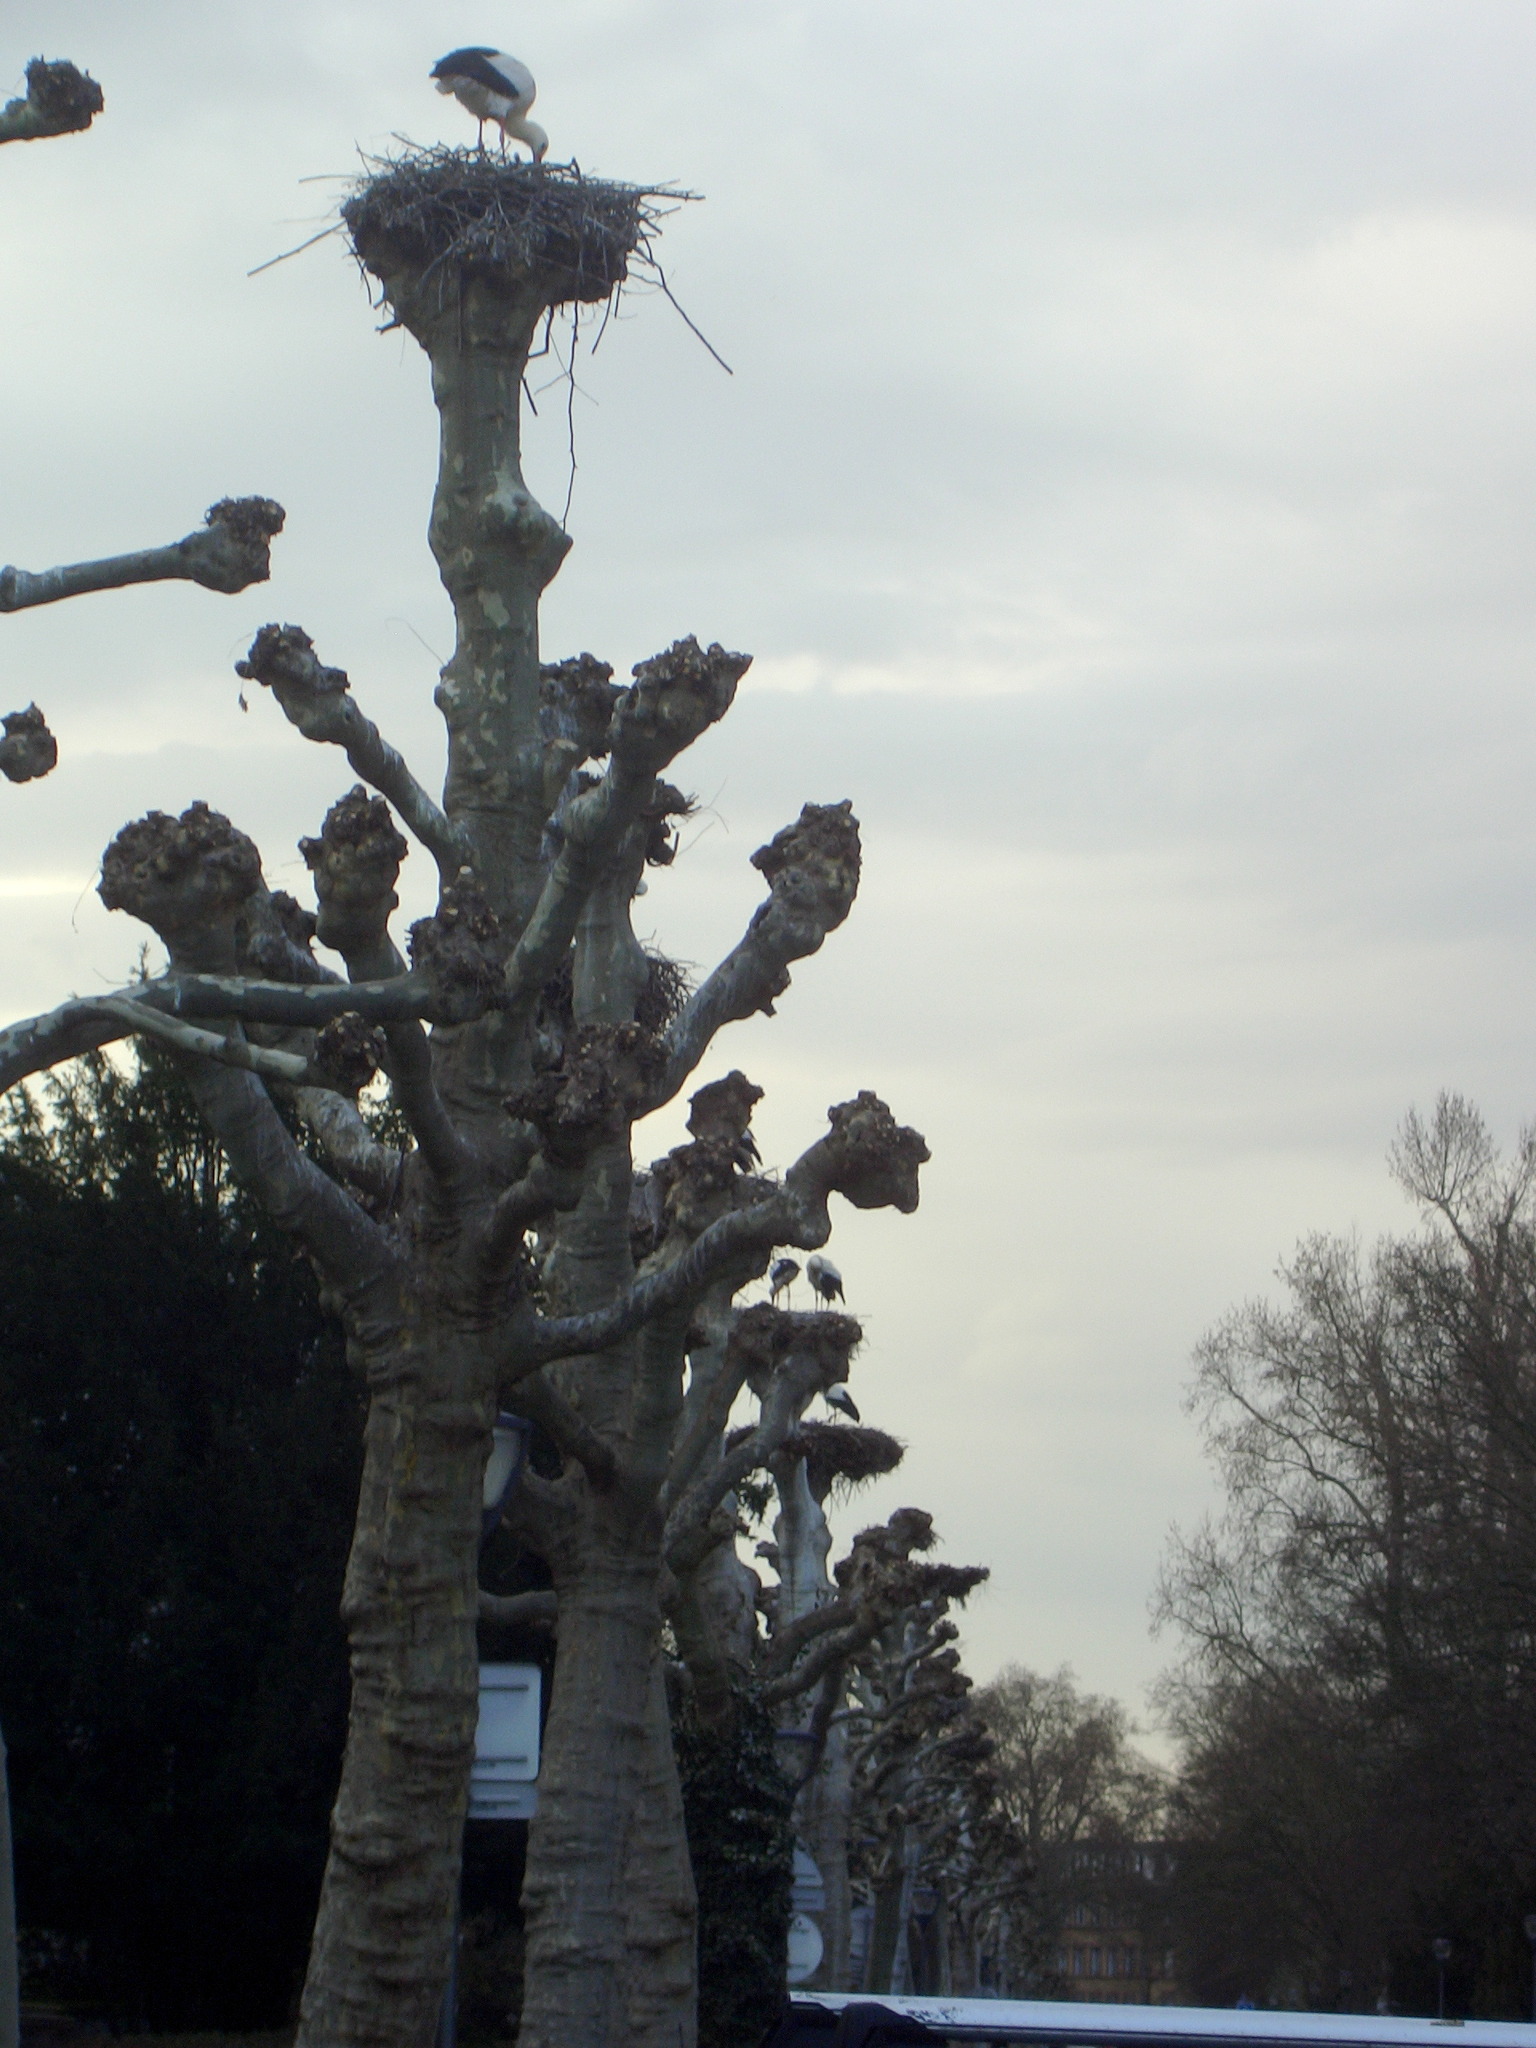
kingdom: Animalia
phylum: Chordata
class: Aves
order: Ciconiiformes
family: Ciconiidae
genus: Ciconia
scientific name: Ciconia ciconia
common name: White stork
